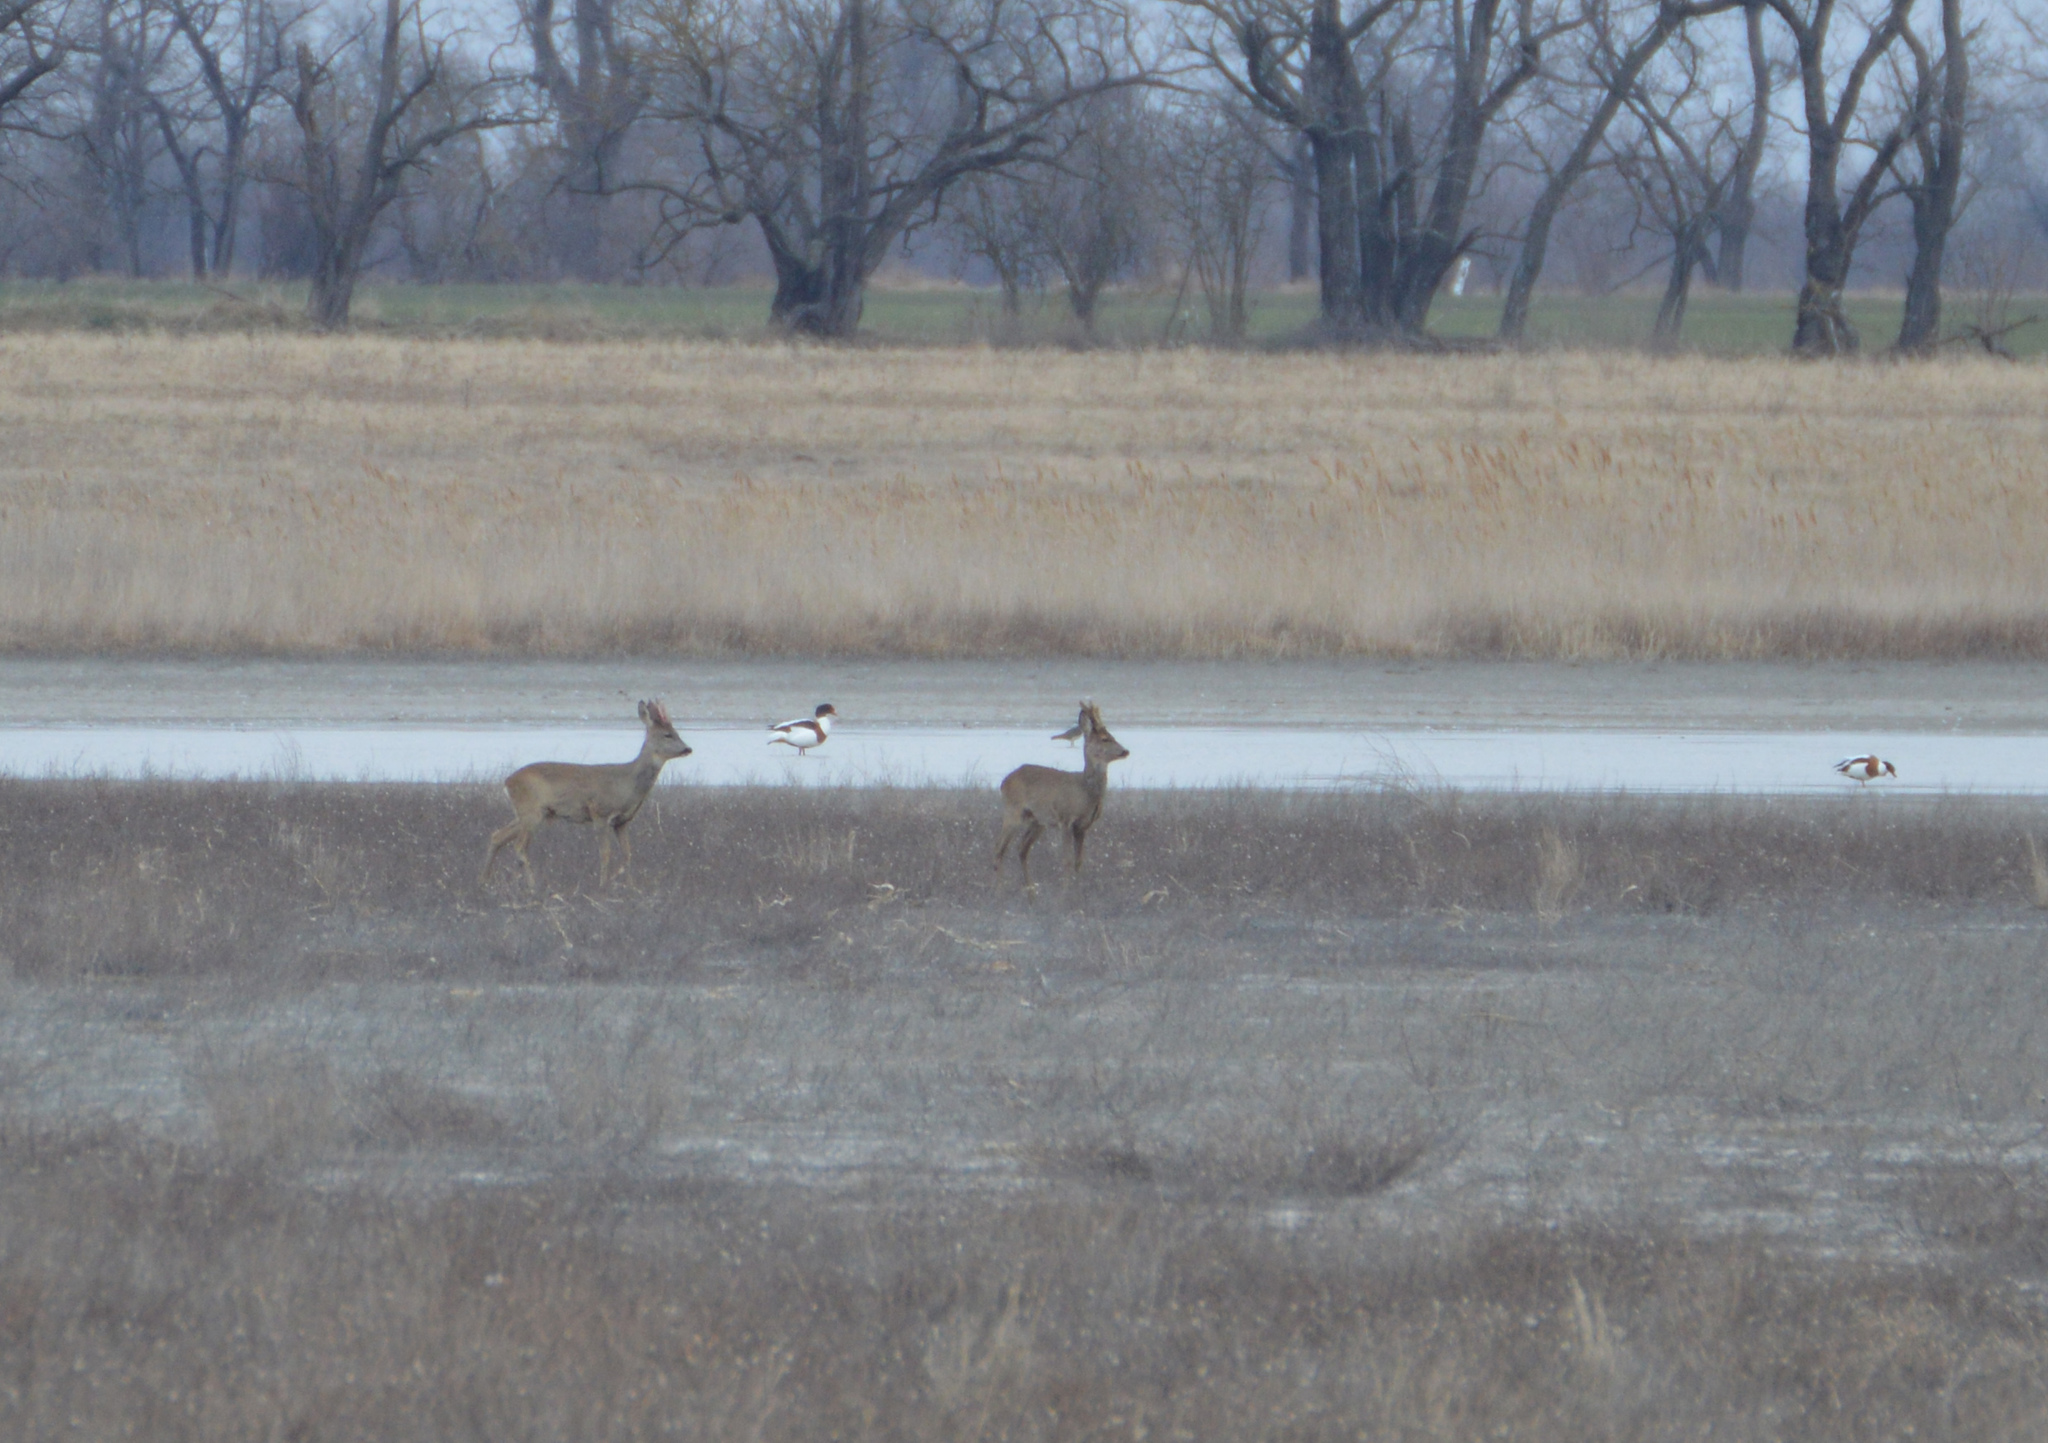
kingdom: Animalia
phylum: Chordata
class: Mammalia
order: Artiodactyla
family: Cervidae
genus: Capreolus
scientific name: Capreolus capreolus
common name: Western roe deer
